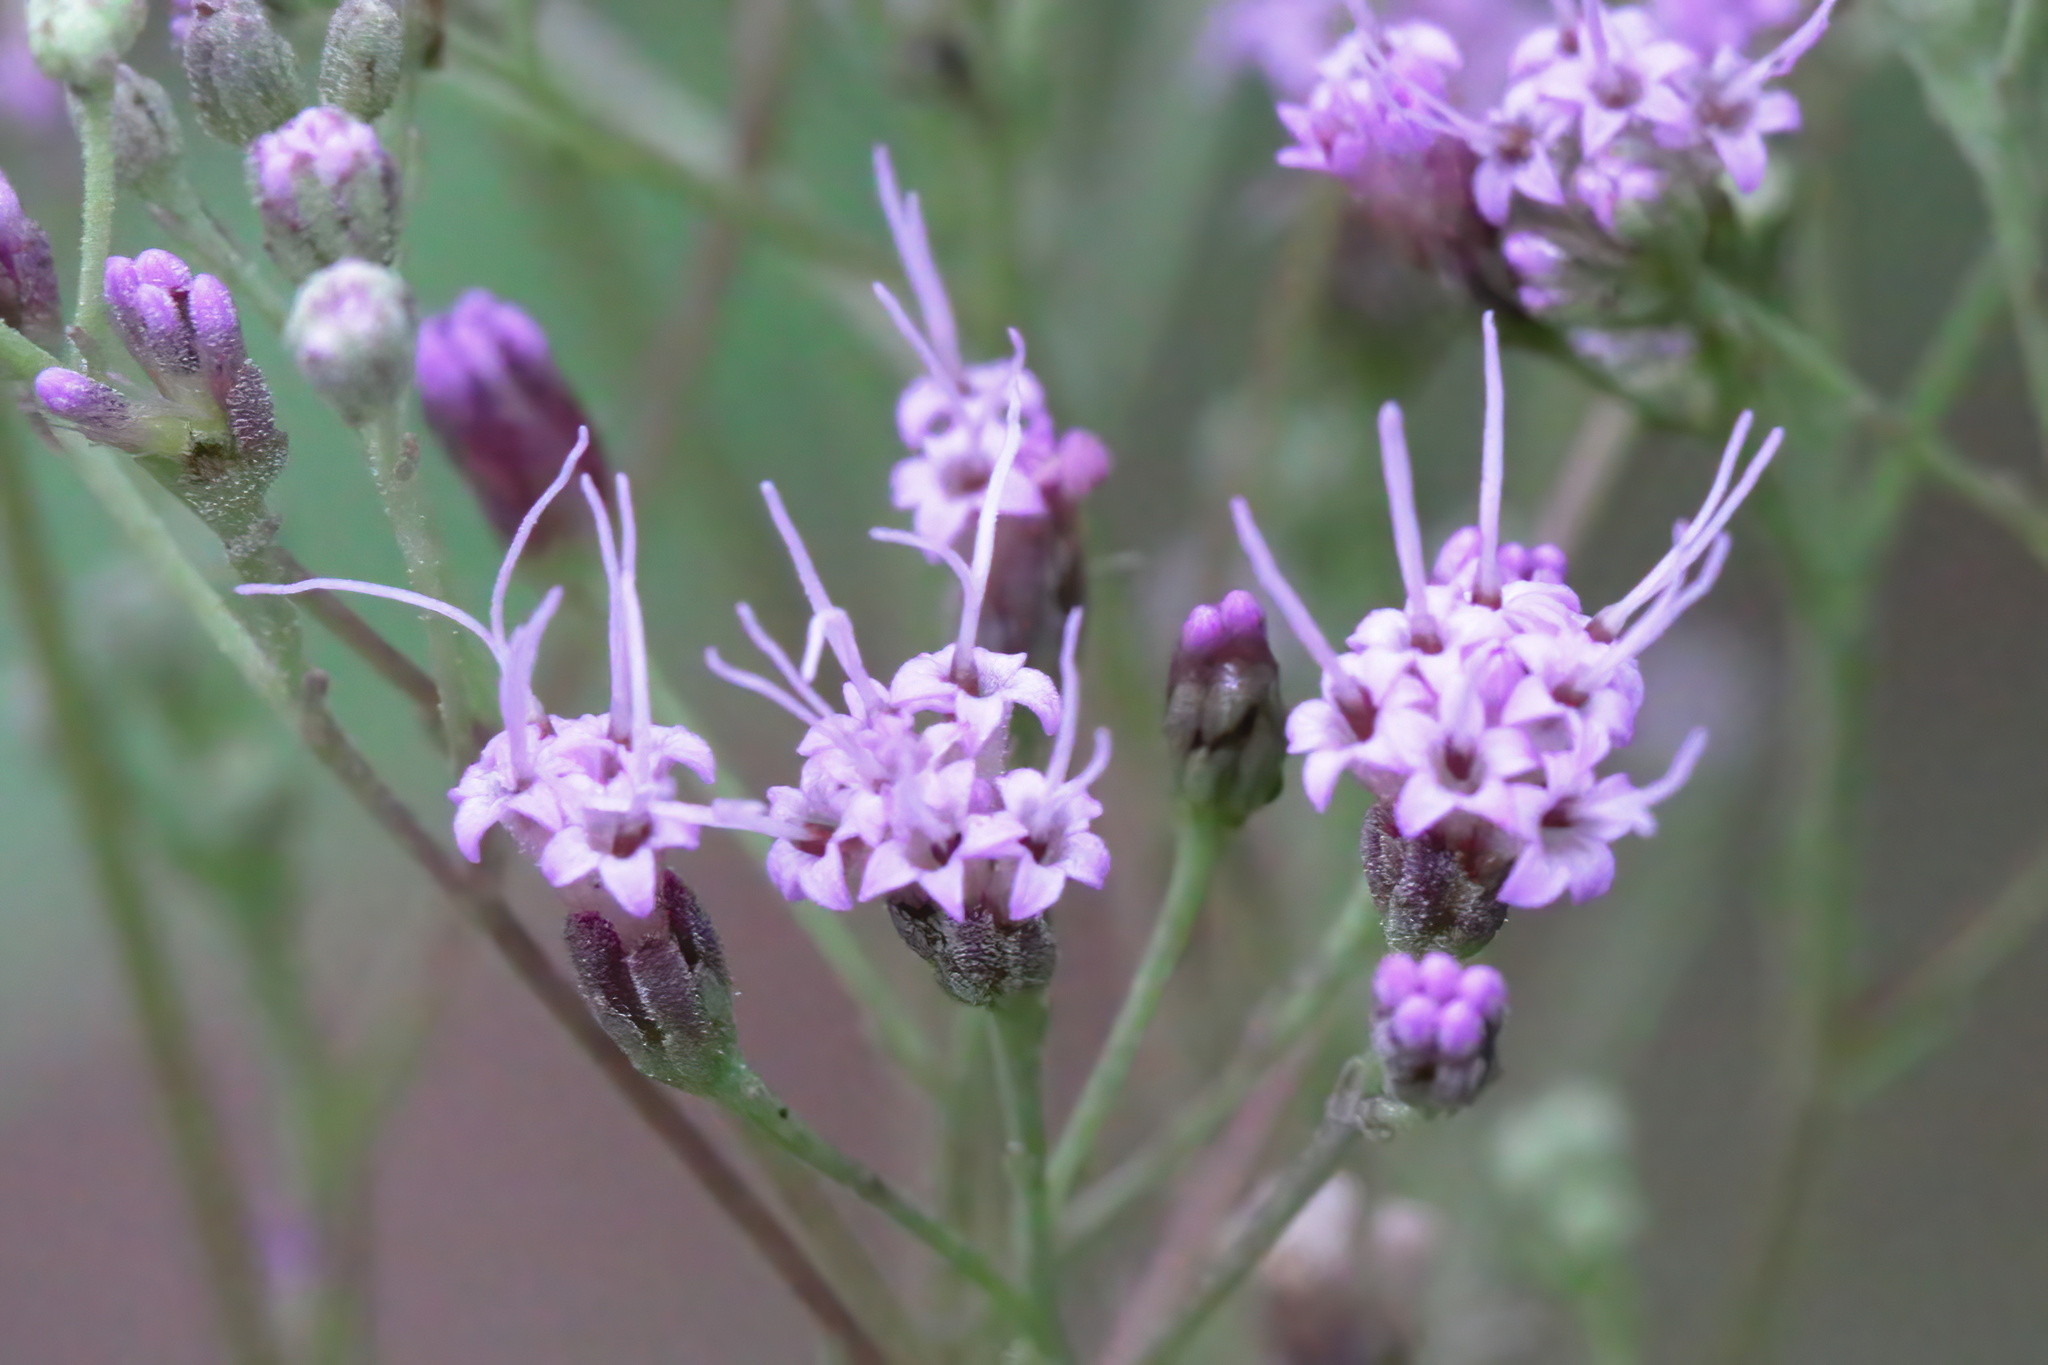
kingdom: Plantae
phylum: Tracheophyta
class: Magnoliopsida
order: Asterales
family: Asteraceae
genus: Carphephorus
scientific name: Carphephorus odoratissimus
